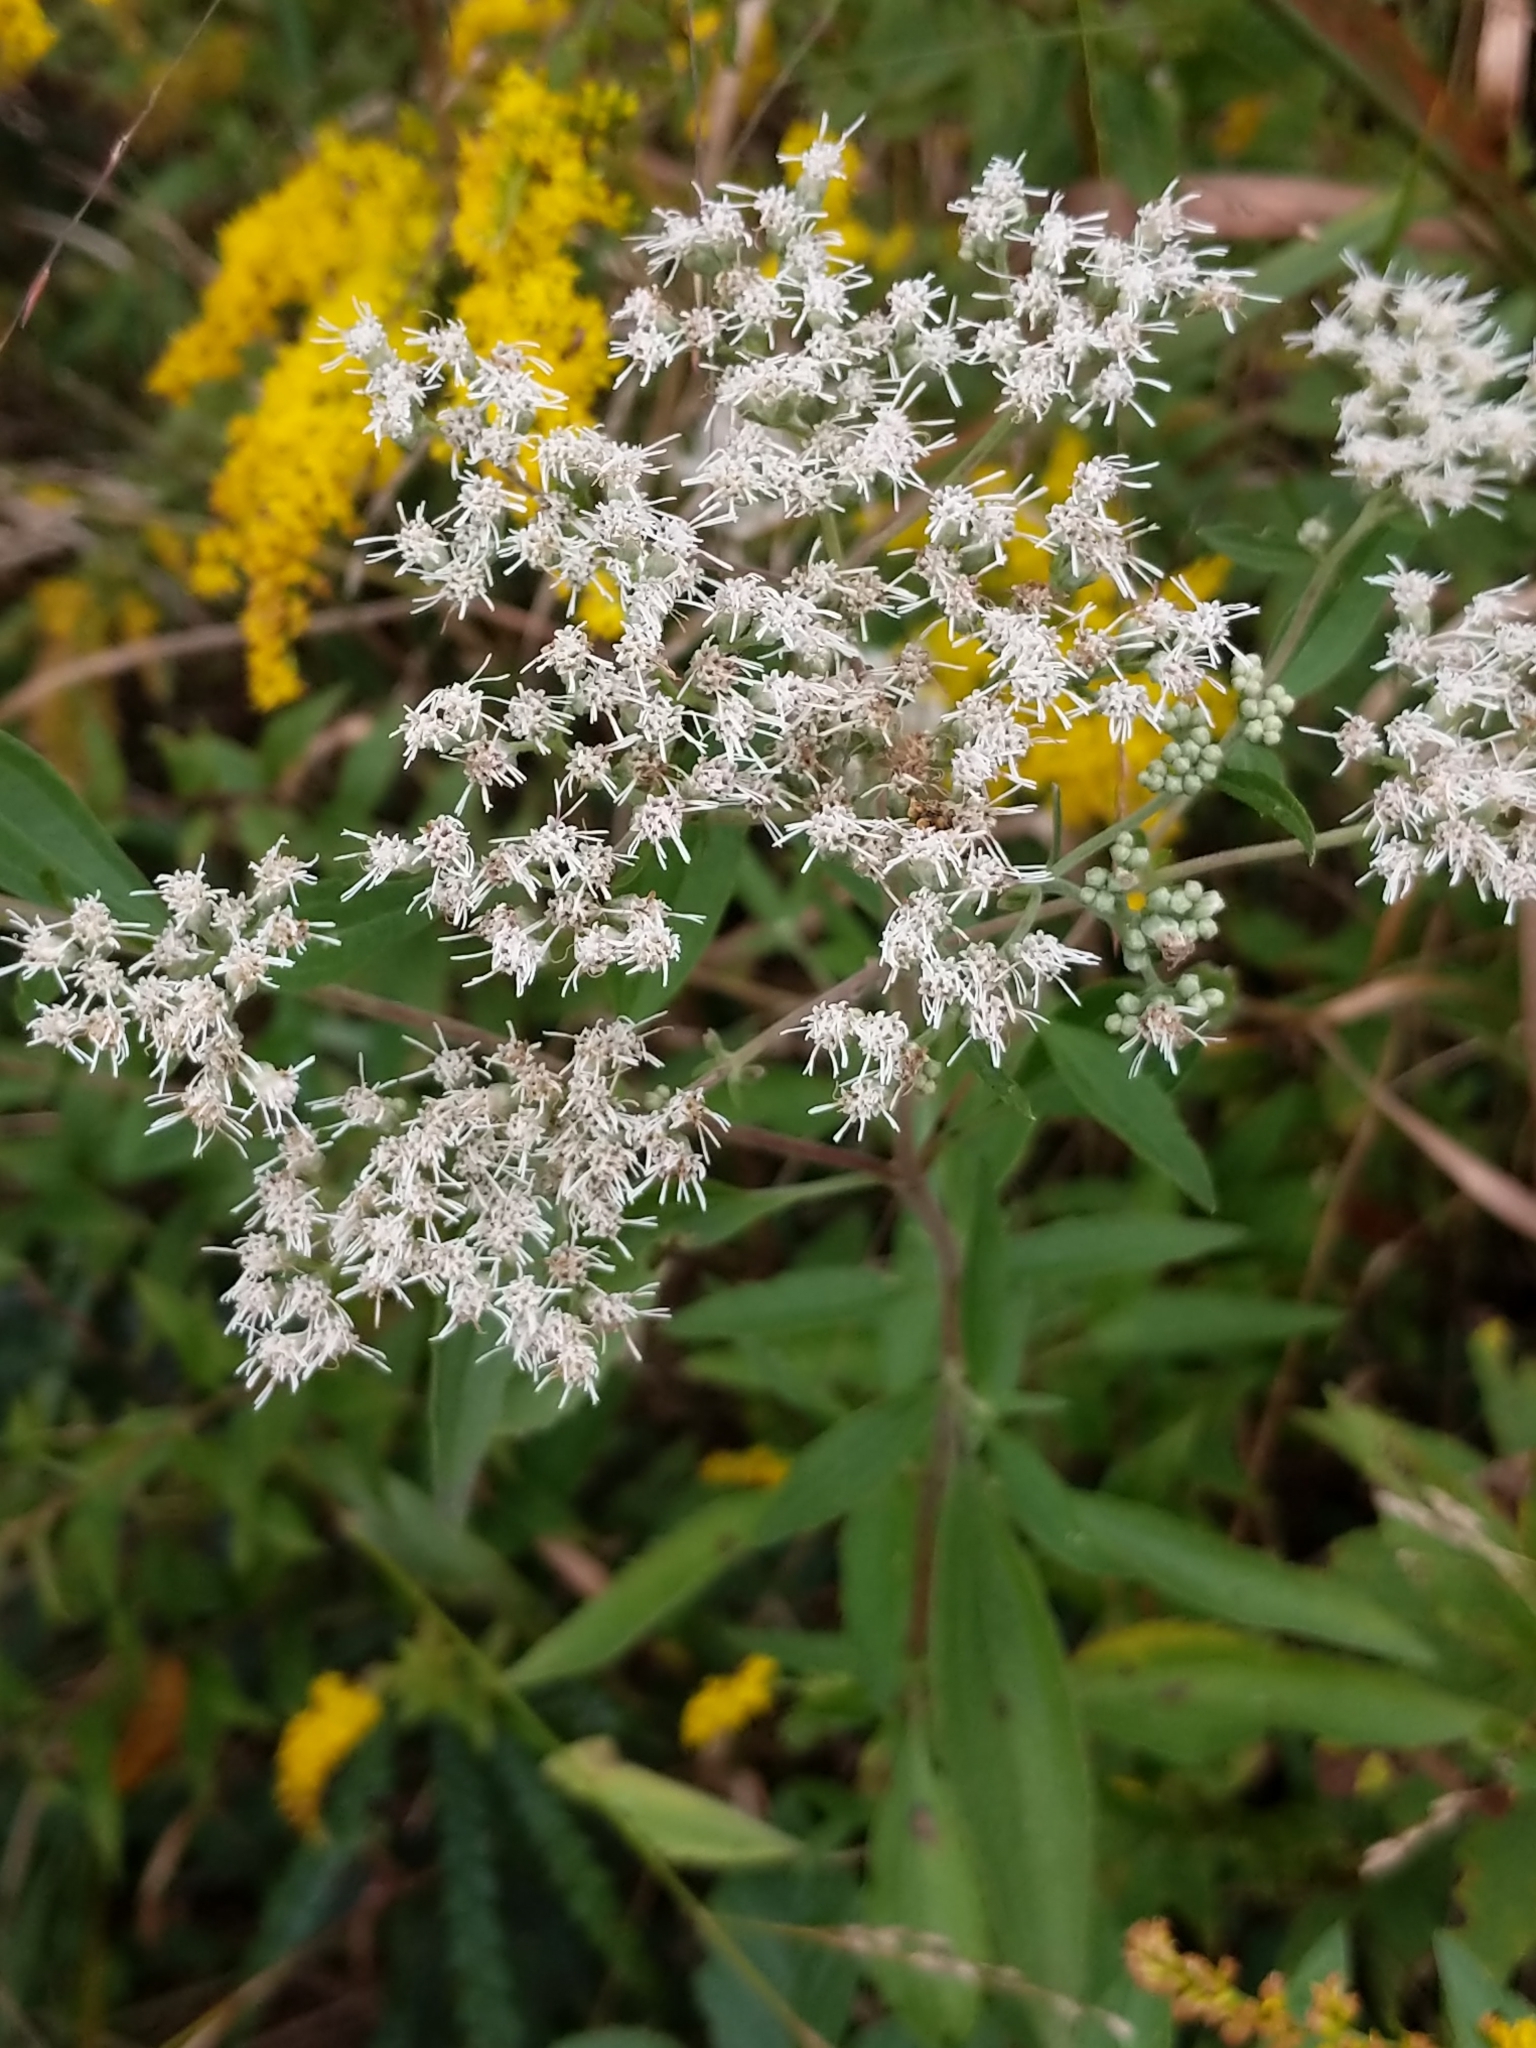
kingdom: Plantae
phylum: Tracheophyta
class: Magnoliopsida
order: Asterales
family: Asteraceae
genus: Eupatorium
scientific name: Eupatorium altissimum
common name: Tall thoroughwort
